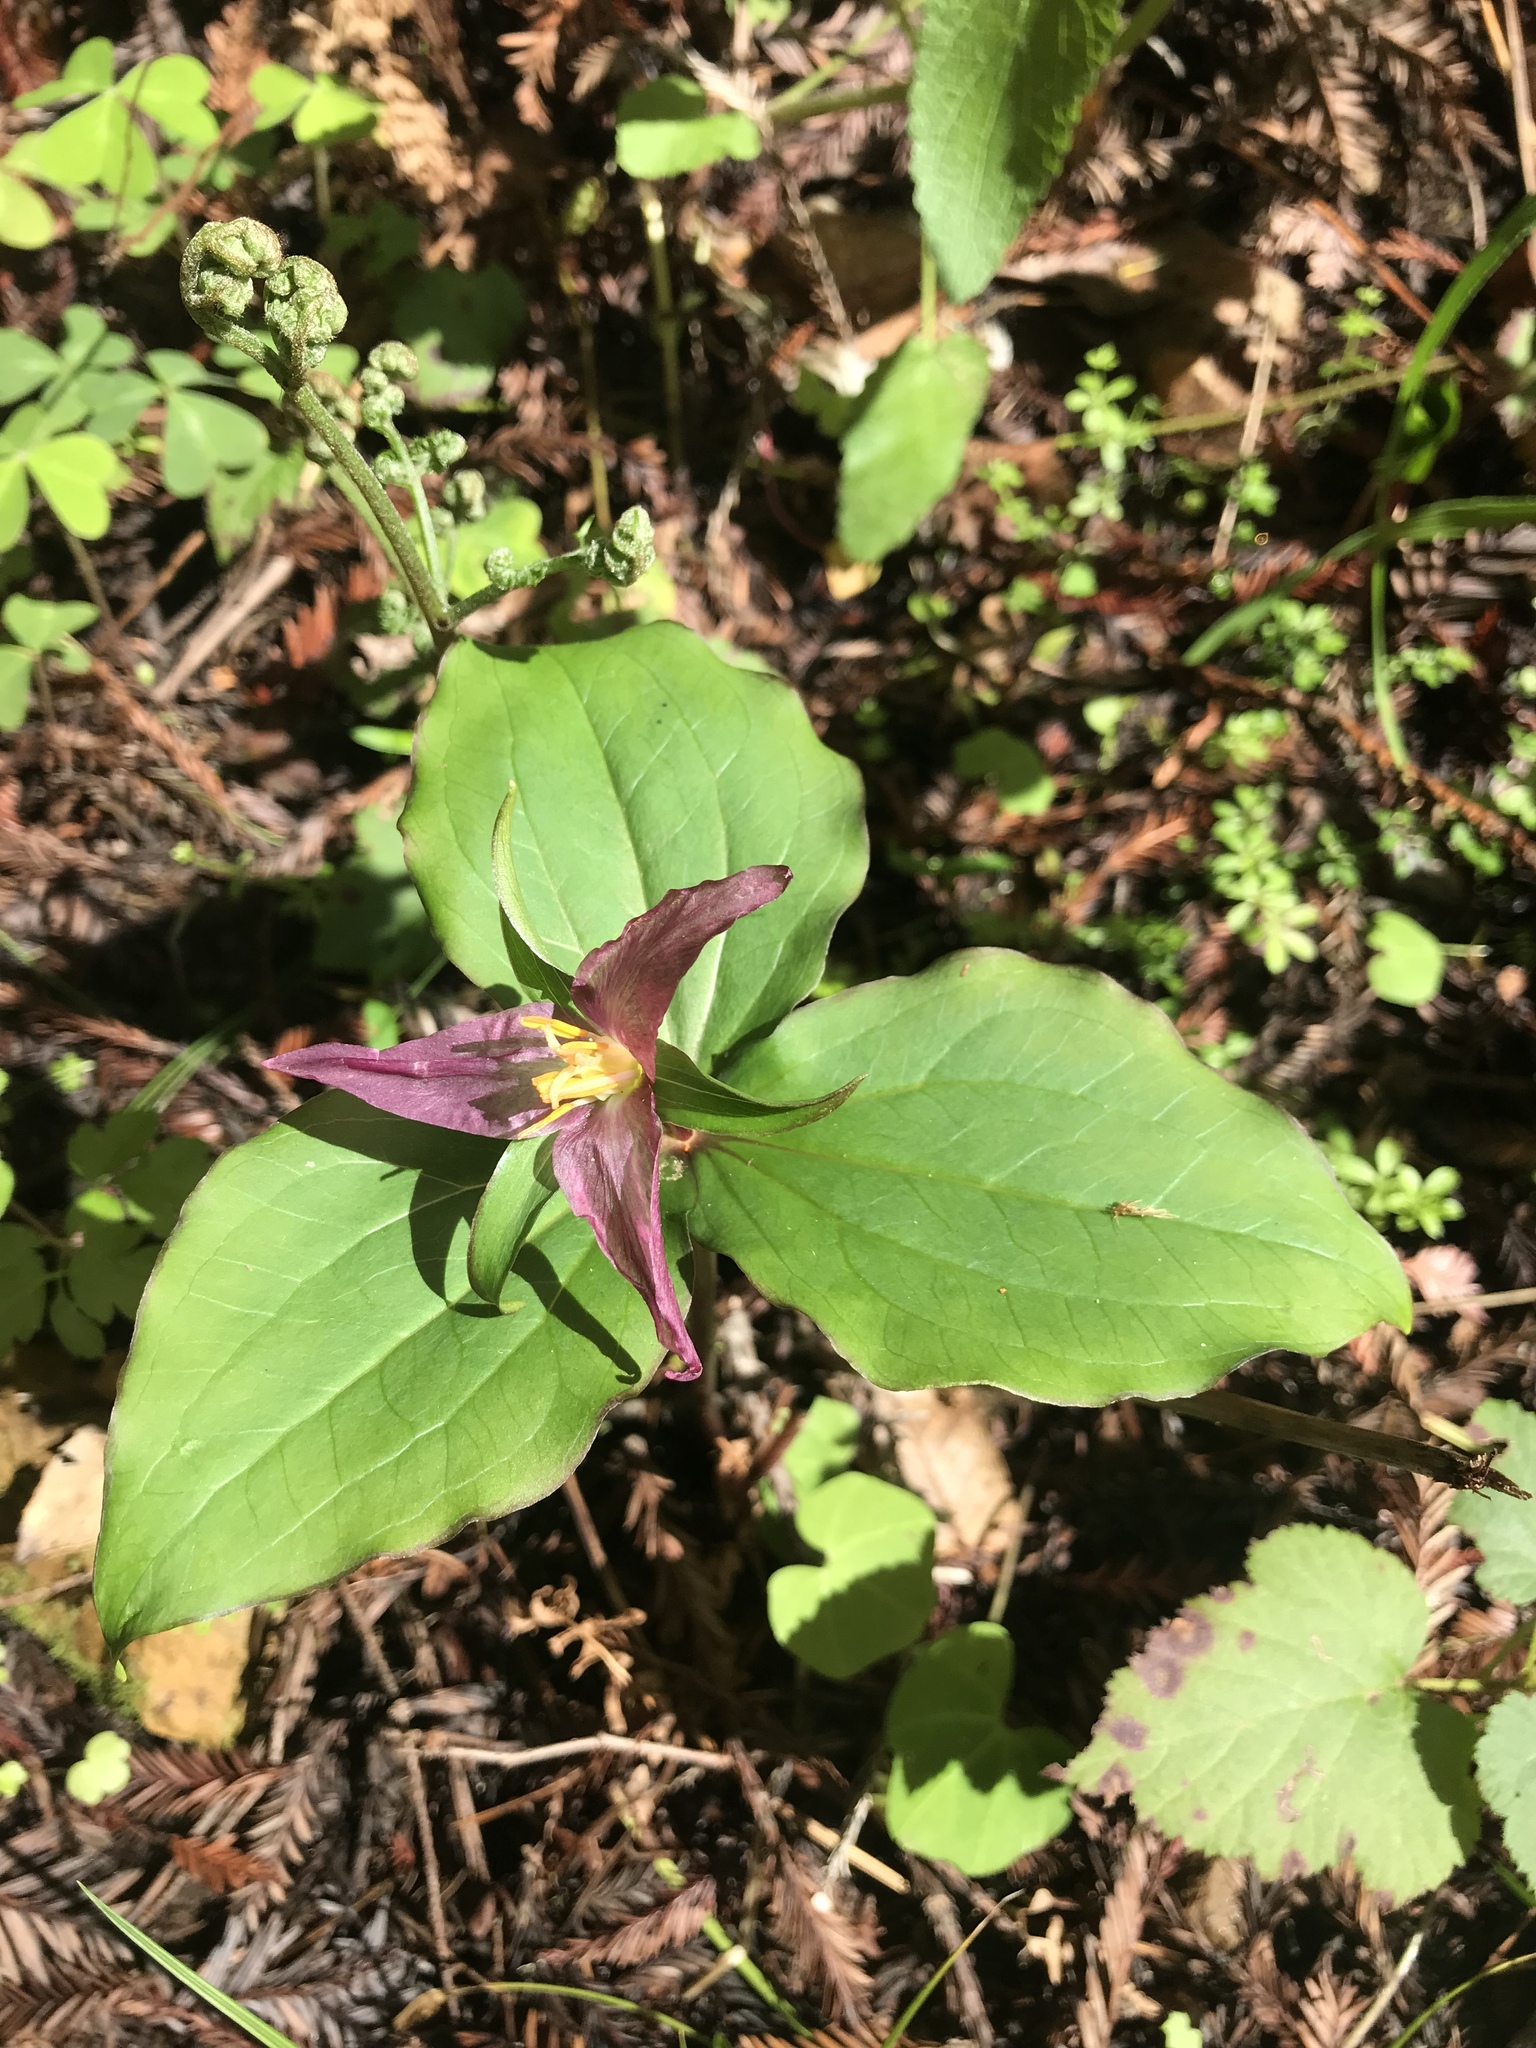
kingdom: Plantae
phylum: Tracheophyta
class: Liliopsida
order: Liliales
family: Melanthiaceae
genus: Trillium
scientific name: Trillium ovatum
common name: Pacific trillium
